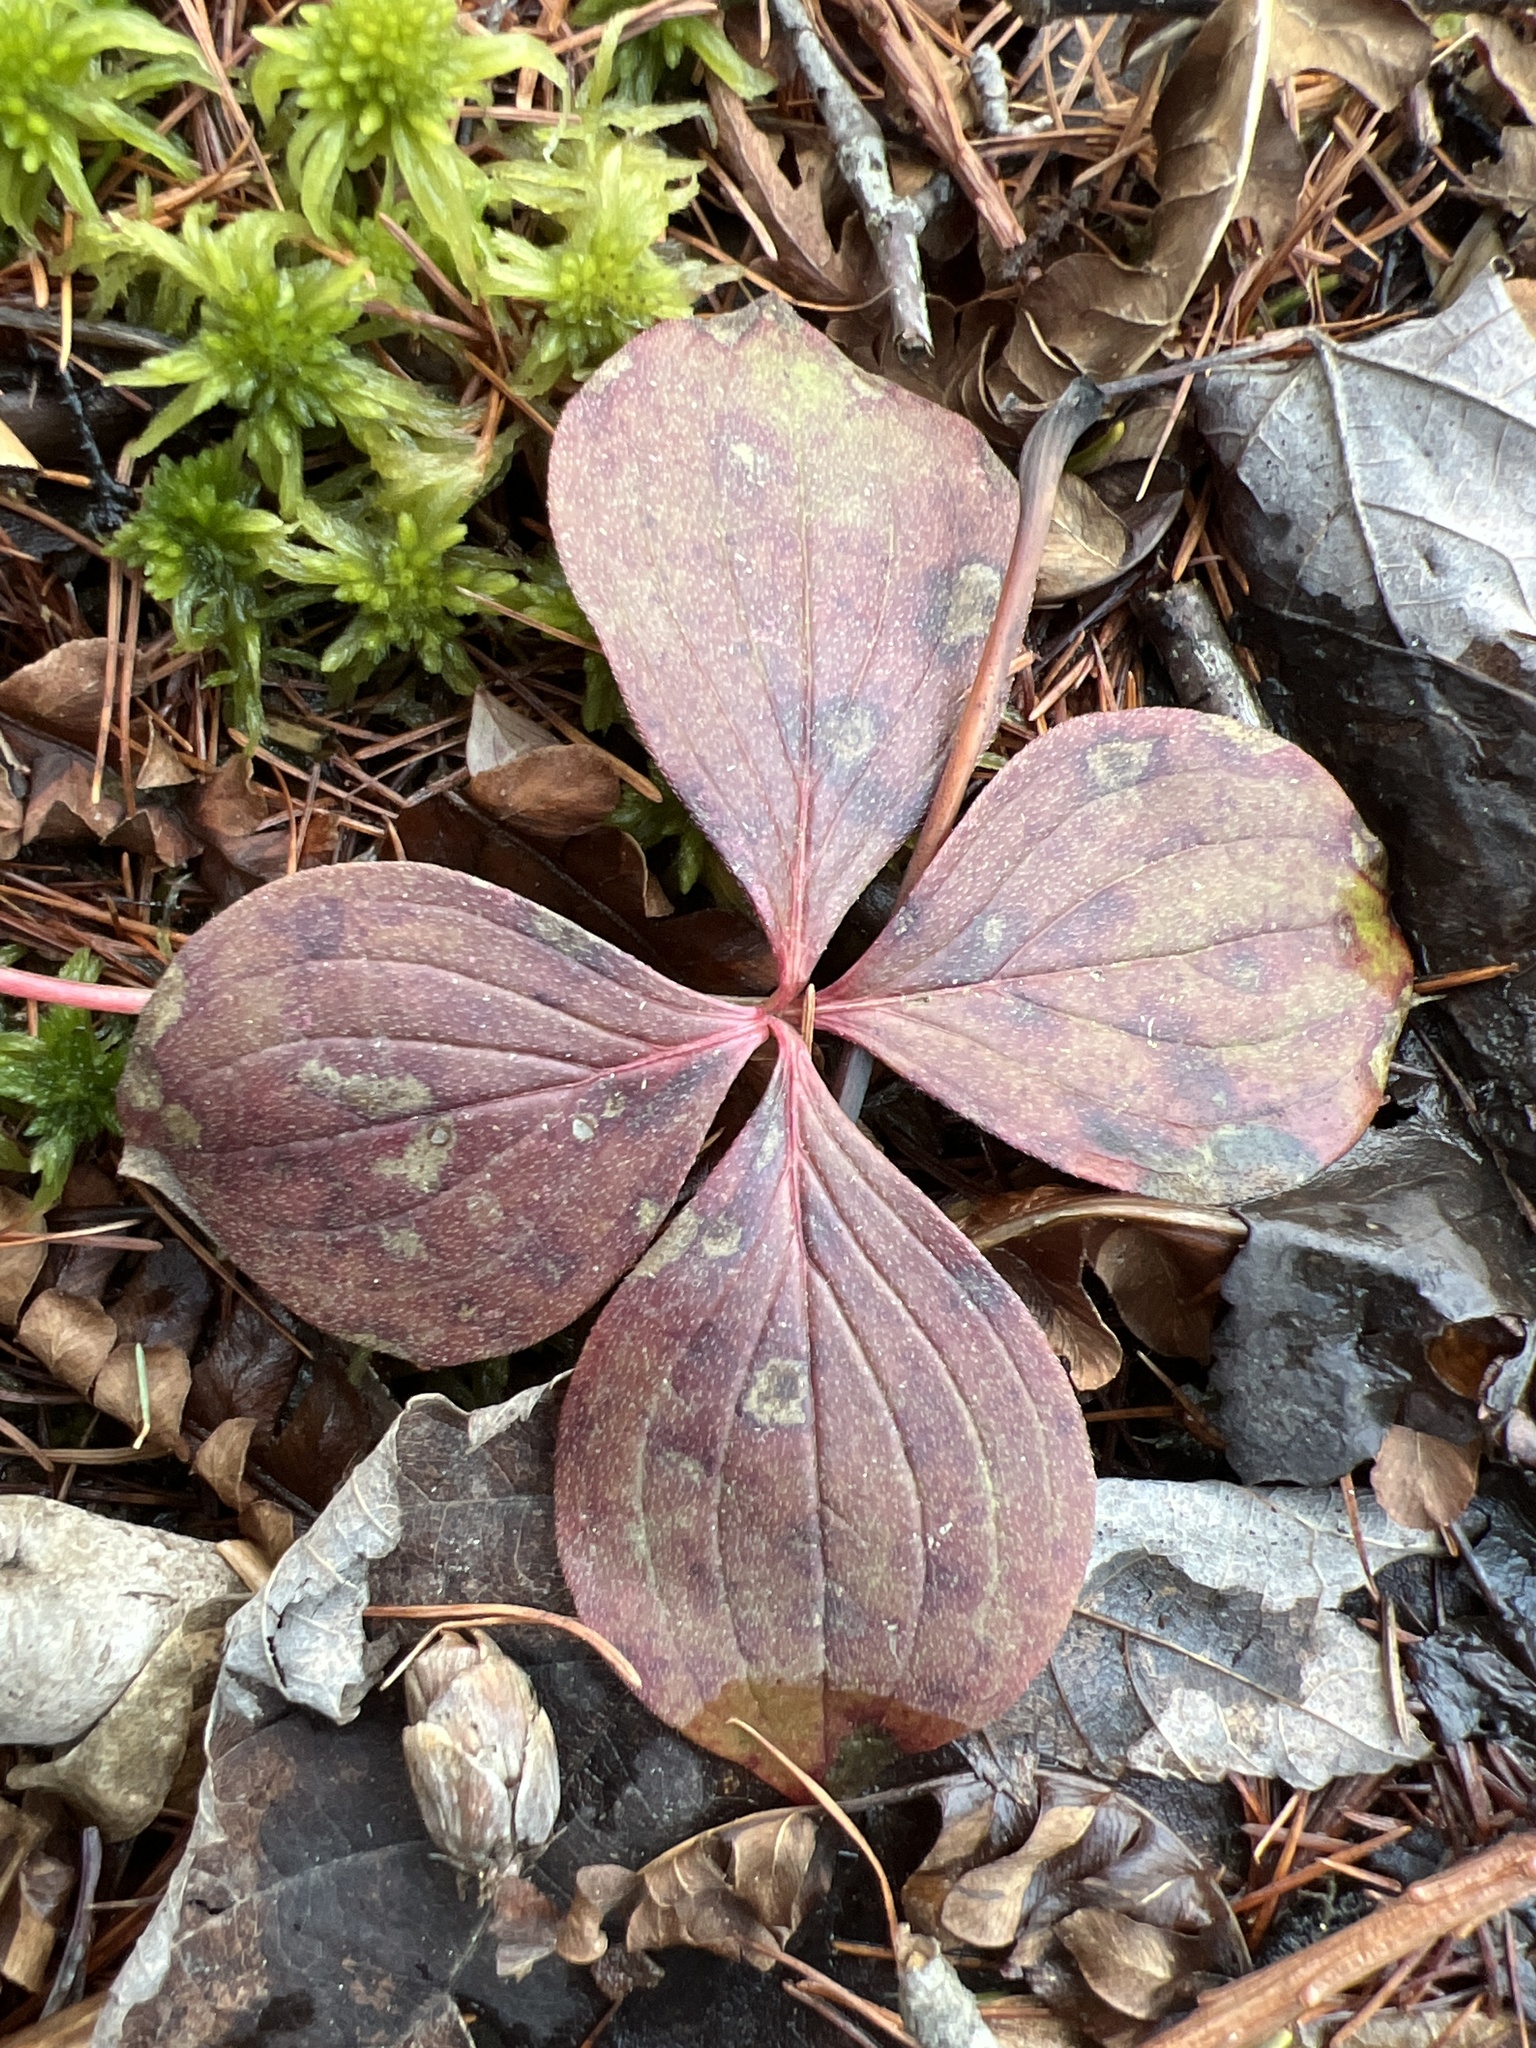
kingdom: Plantae
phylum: Tracheophyta
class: Magnoliopsida
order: Cornales
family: Cornaceae
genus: Cornus
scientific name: Cornus canadensis
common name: Creeping dogwood
